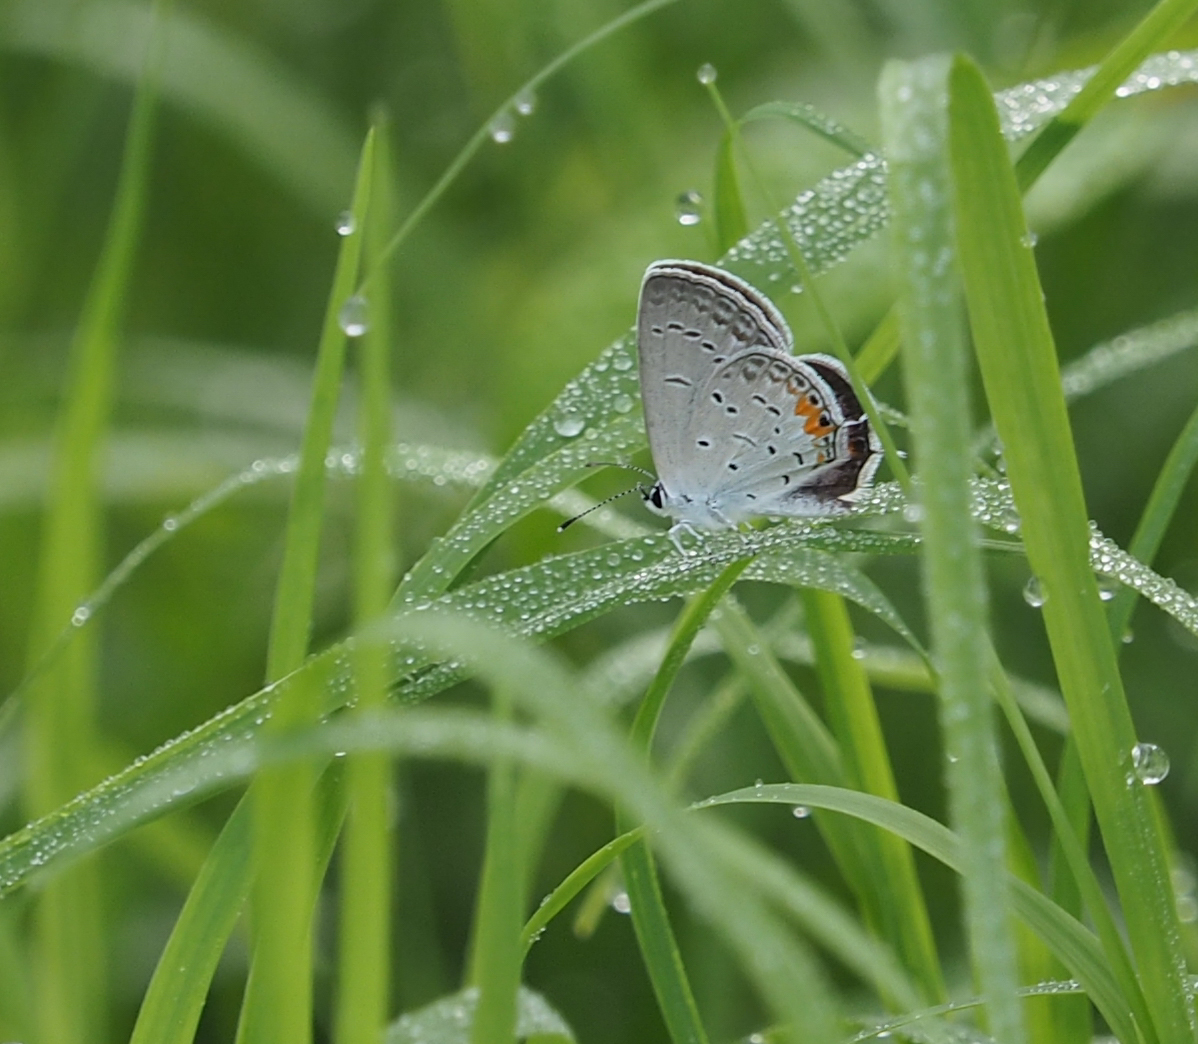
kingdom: Animalia
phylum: Arthropoda
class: Insecta
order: Lepidoptera
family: Lycaenidae
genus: Elkalyce
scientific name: Elkalyce comyntas
